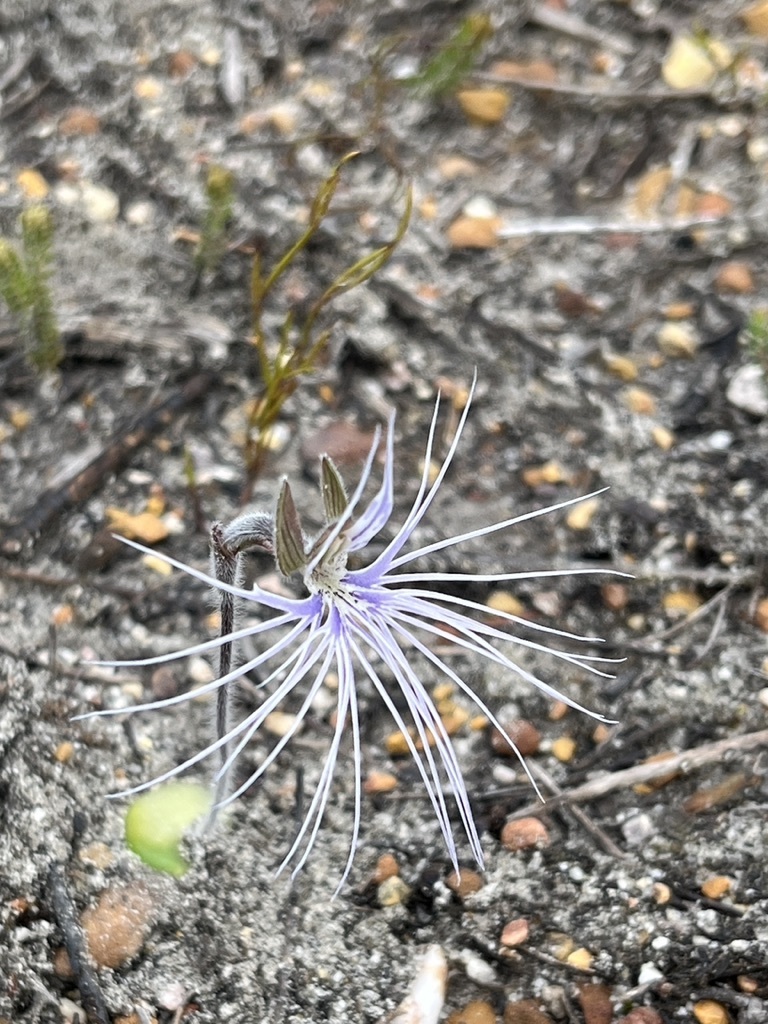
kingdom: Plantae
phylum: Tracheophyta
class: Liliopsida
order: Asparagales
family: Orchidaceae
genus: Holothrix
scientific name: Holothrix burmanniana
